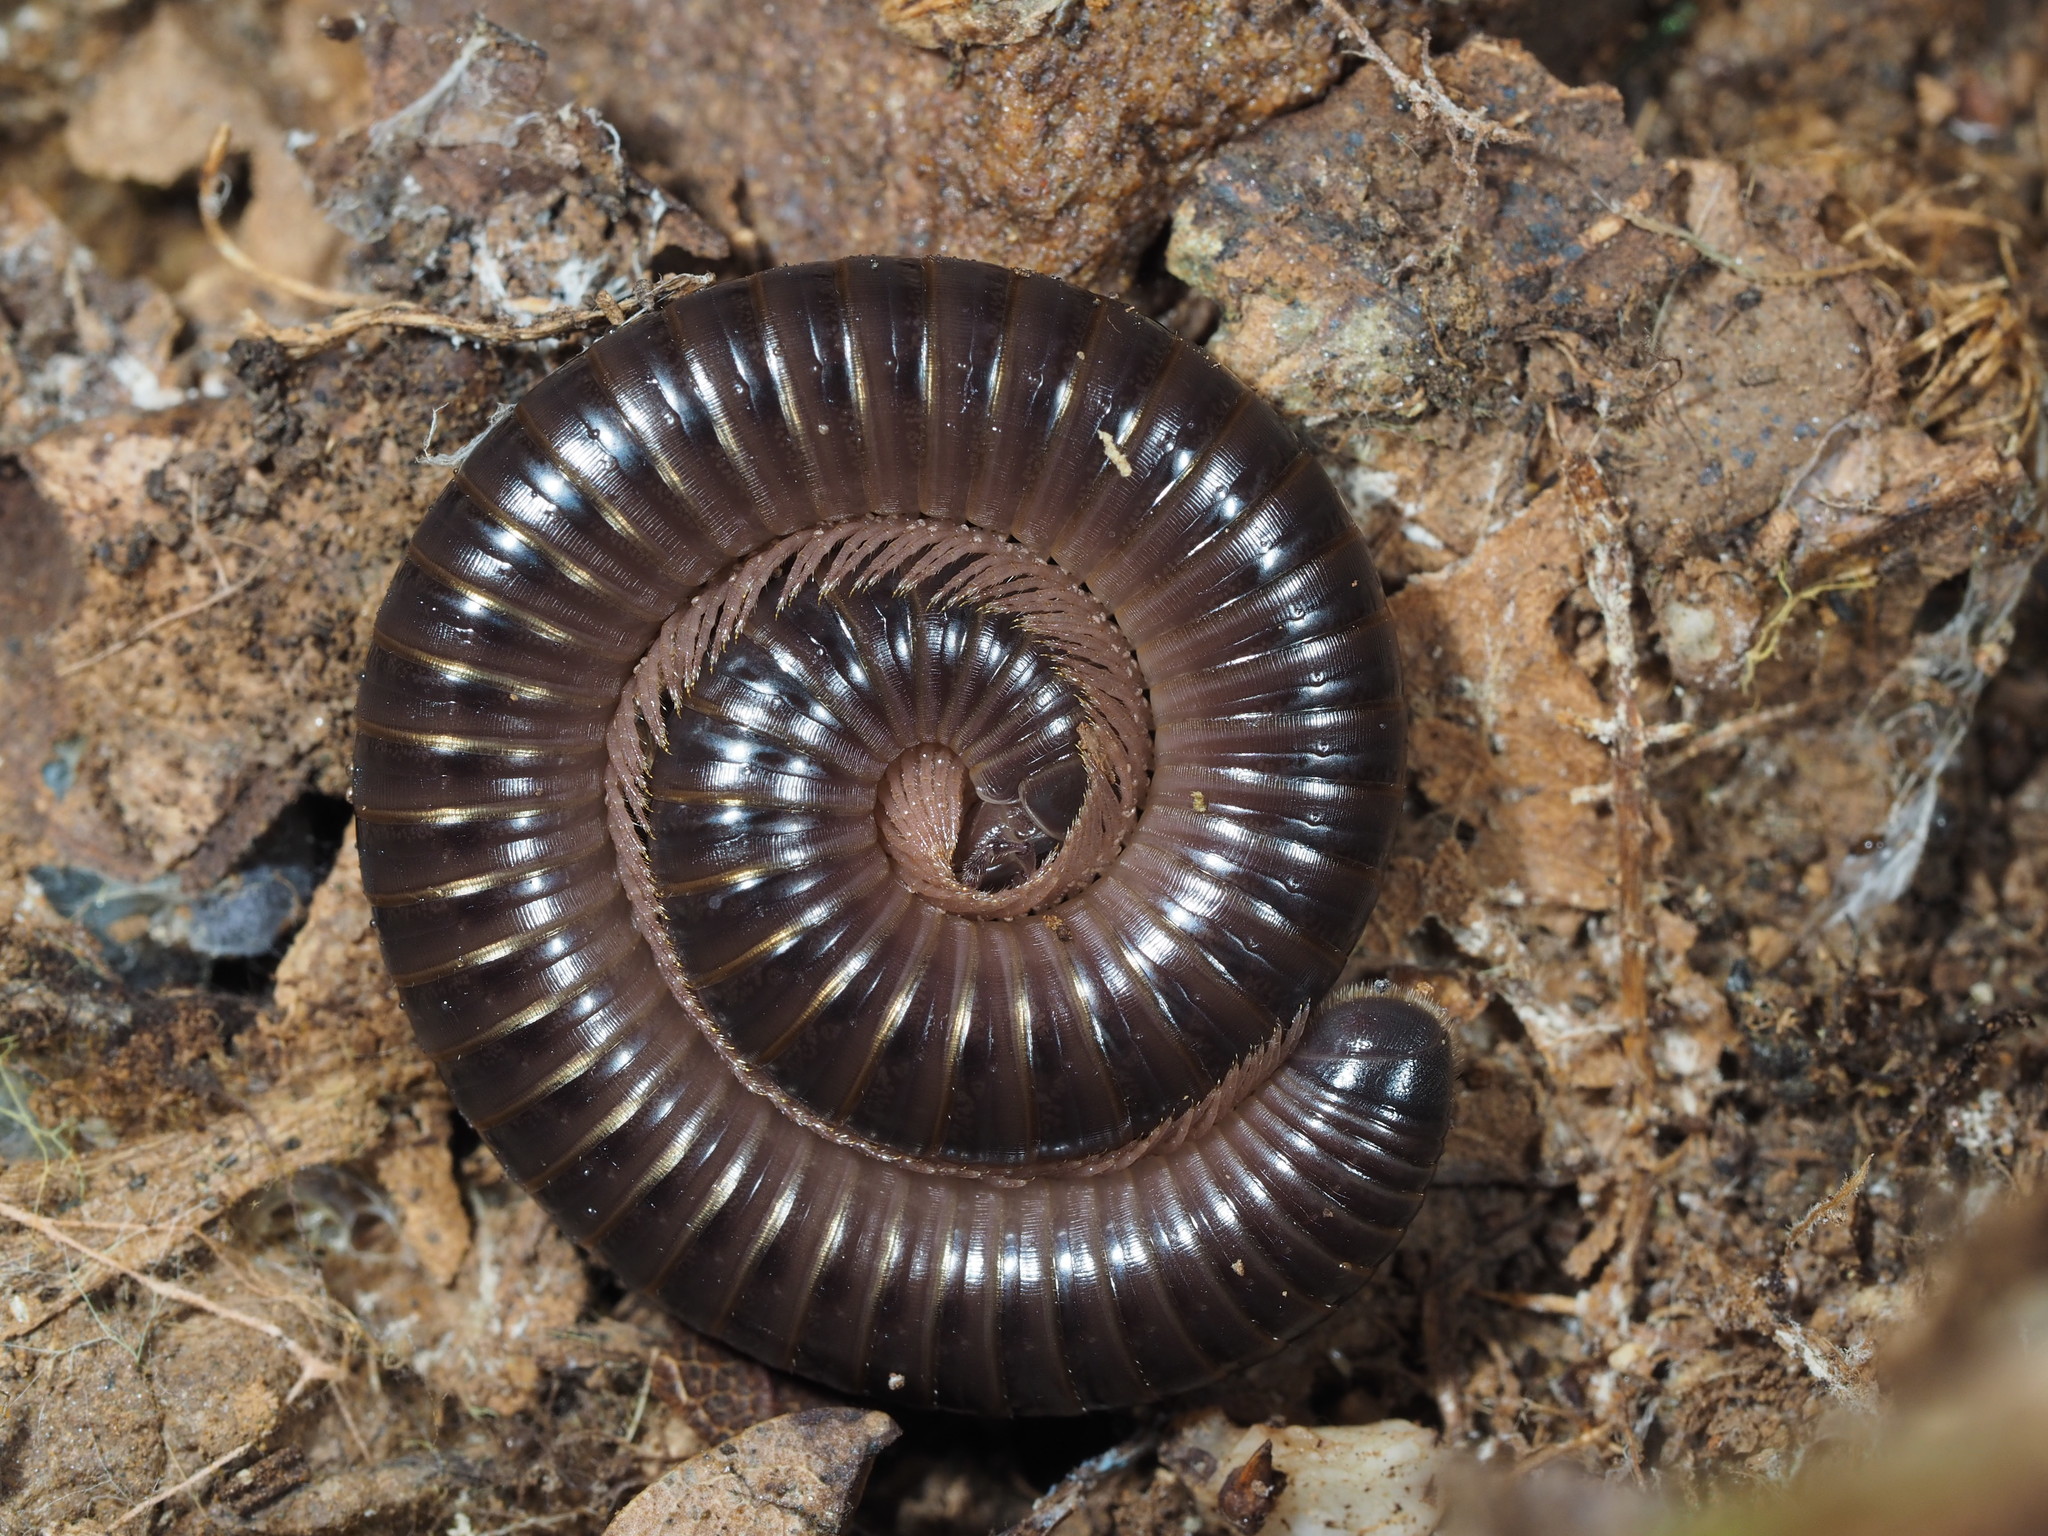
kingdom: Animalia
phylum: Arthropoda
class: Diplopoda
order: Julida
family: Julidae
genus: Pachyiulus
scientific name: Pachyiulus oenologus
